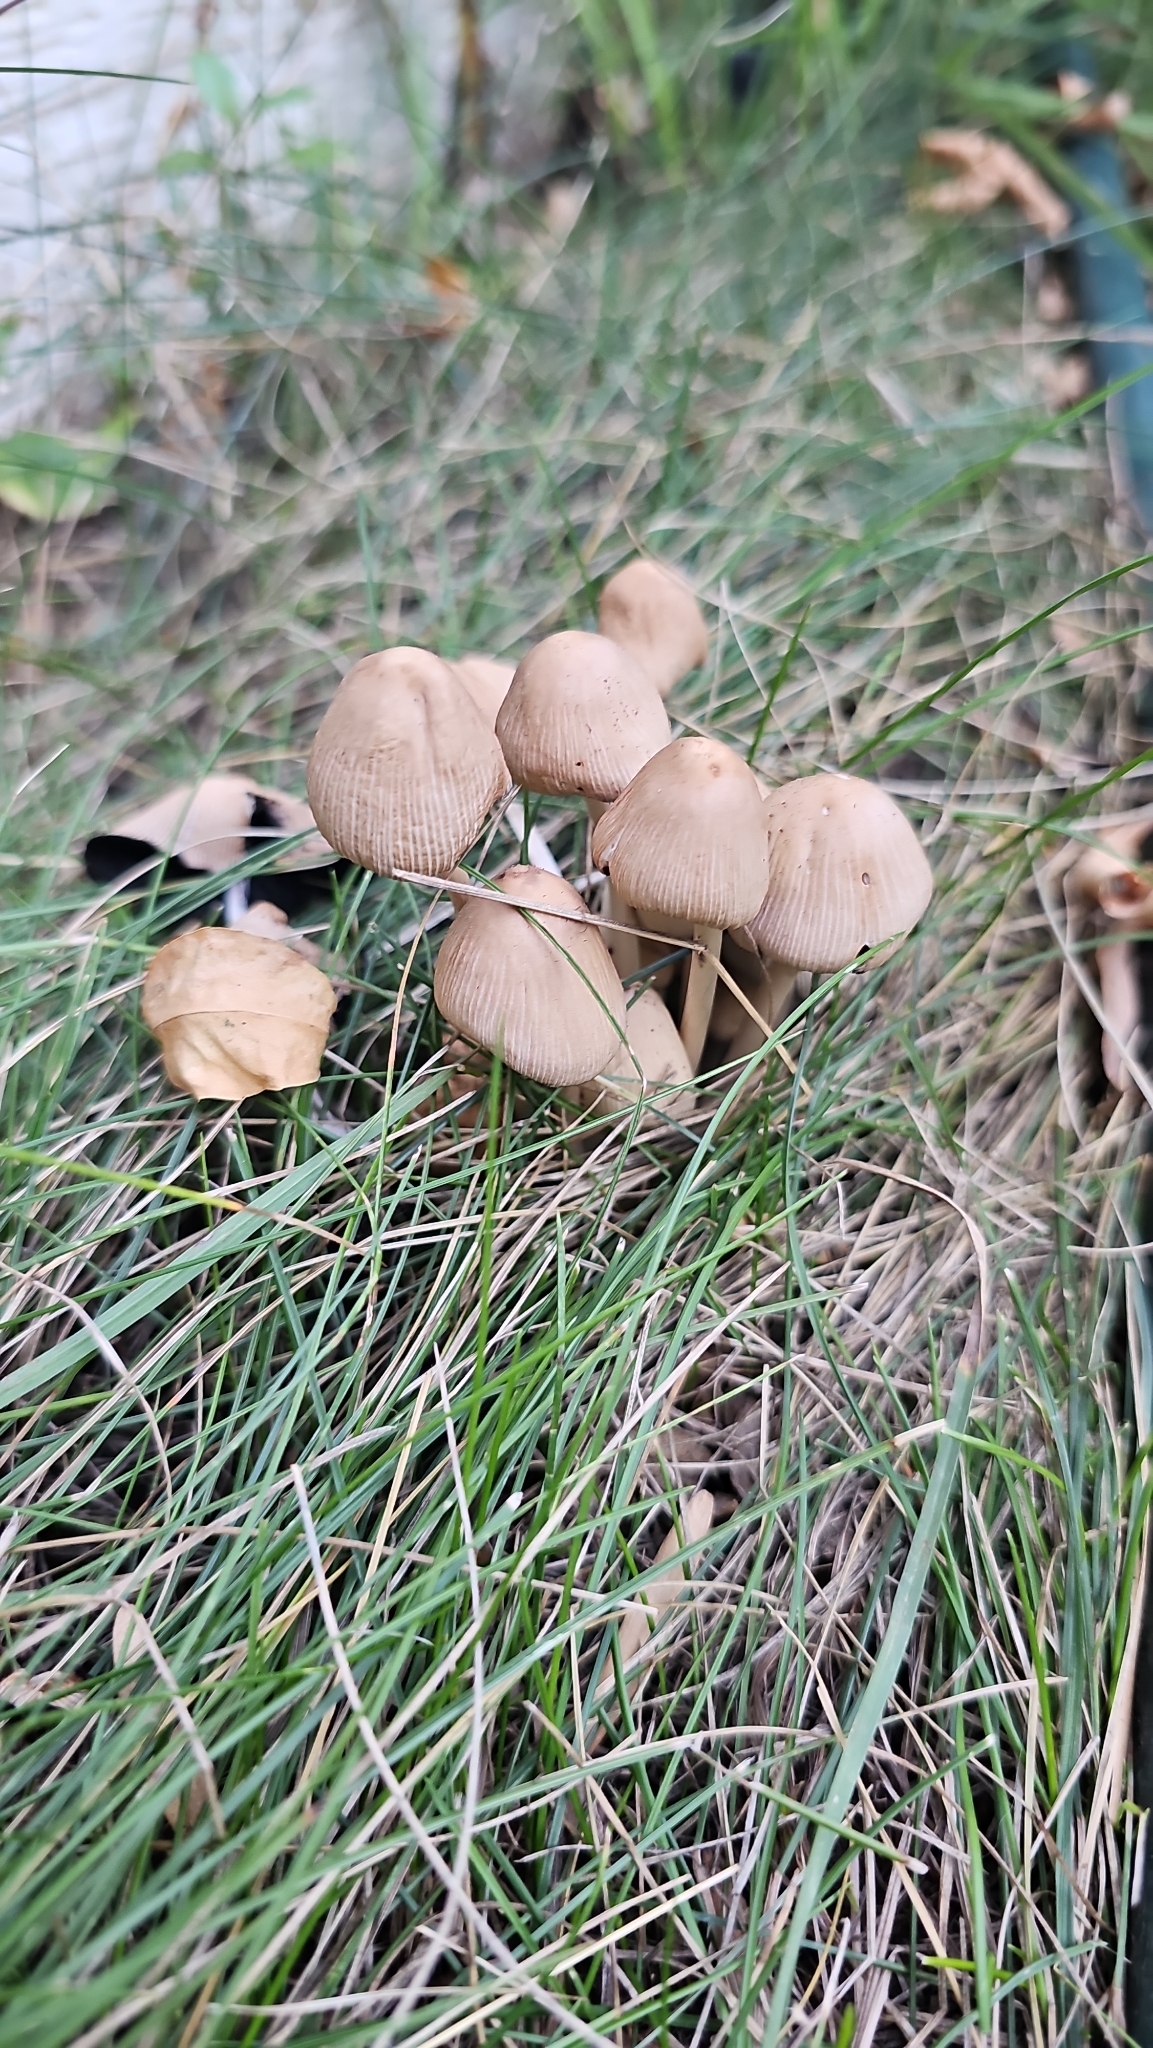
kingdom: Fungi
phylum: Basidiomycota
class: Agaricomycetes
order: Agaricales
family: Marasmiaceae
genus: Marasmius
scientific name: Marasmius oreades
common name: Fairy ring champignon
